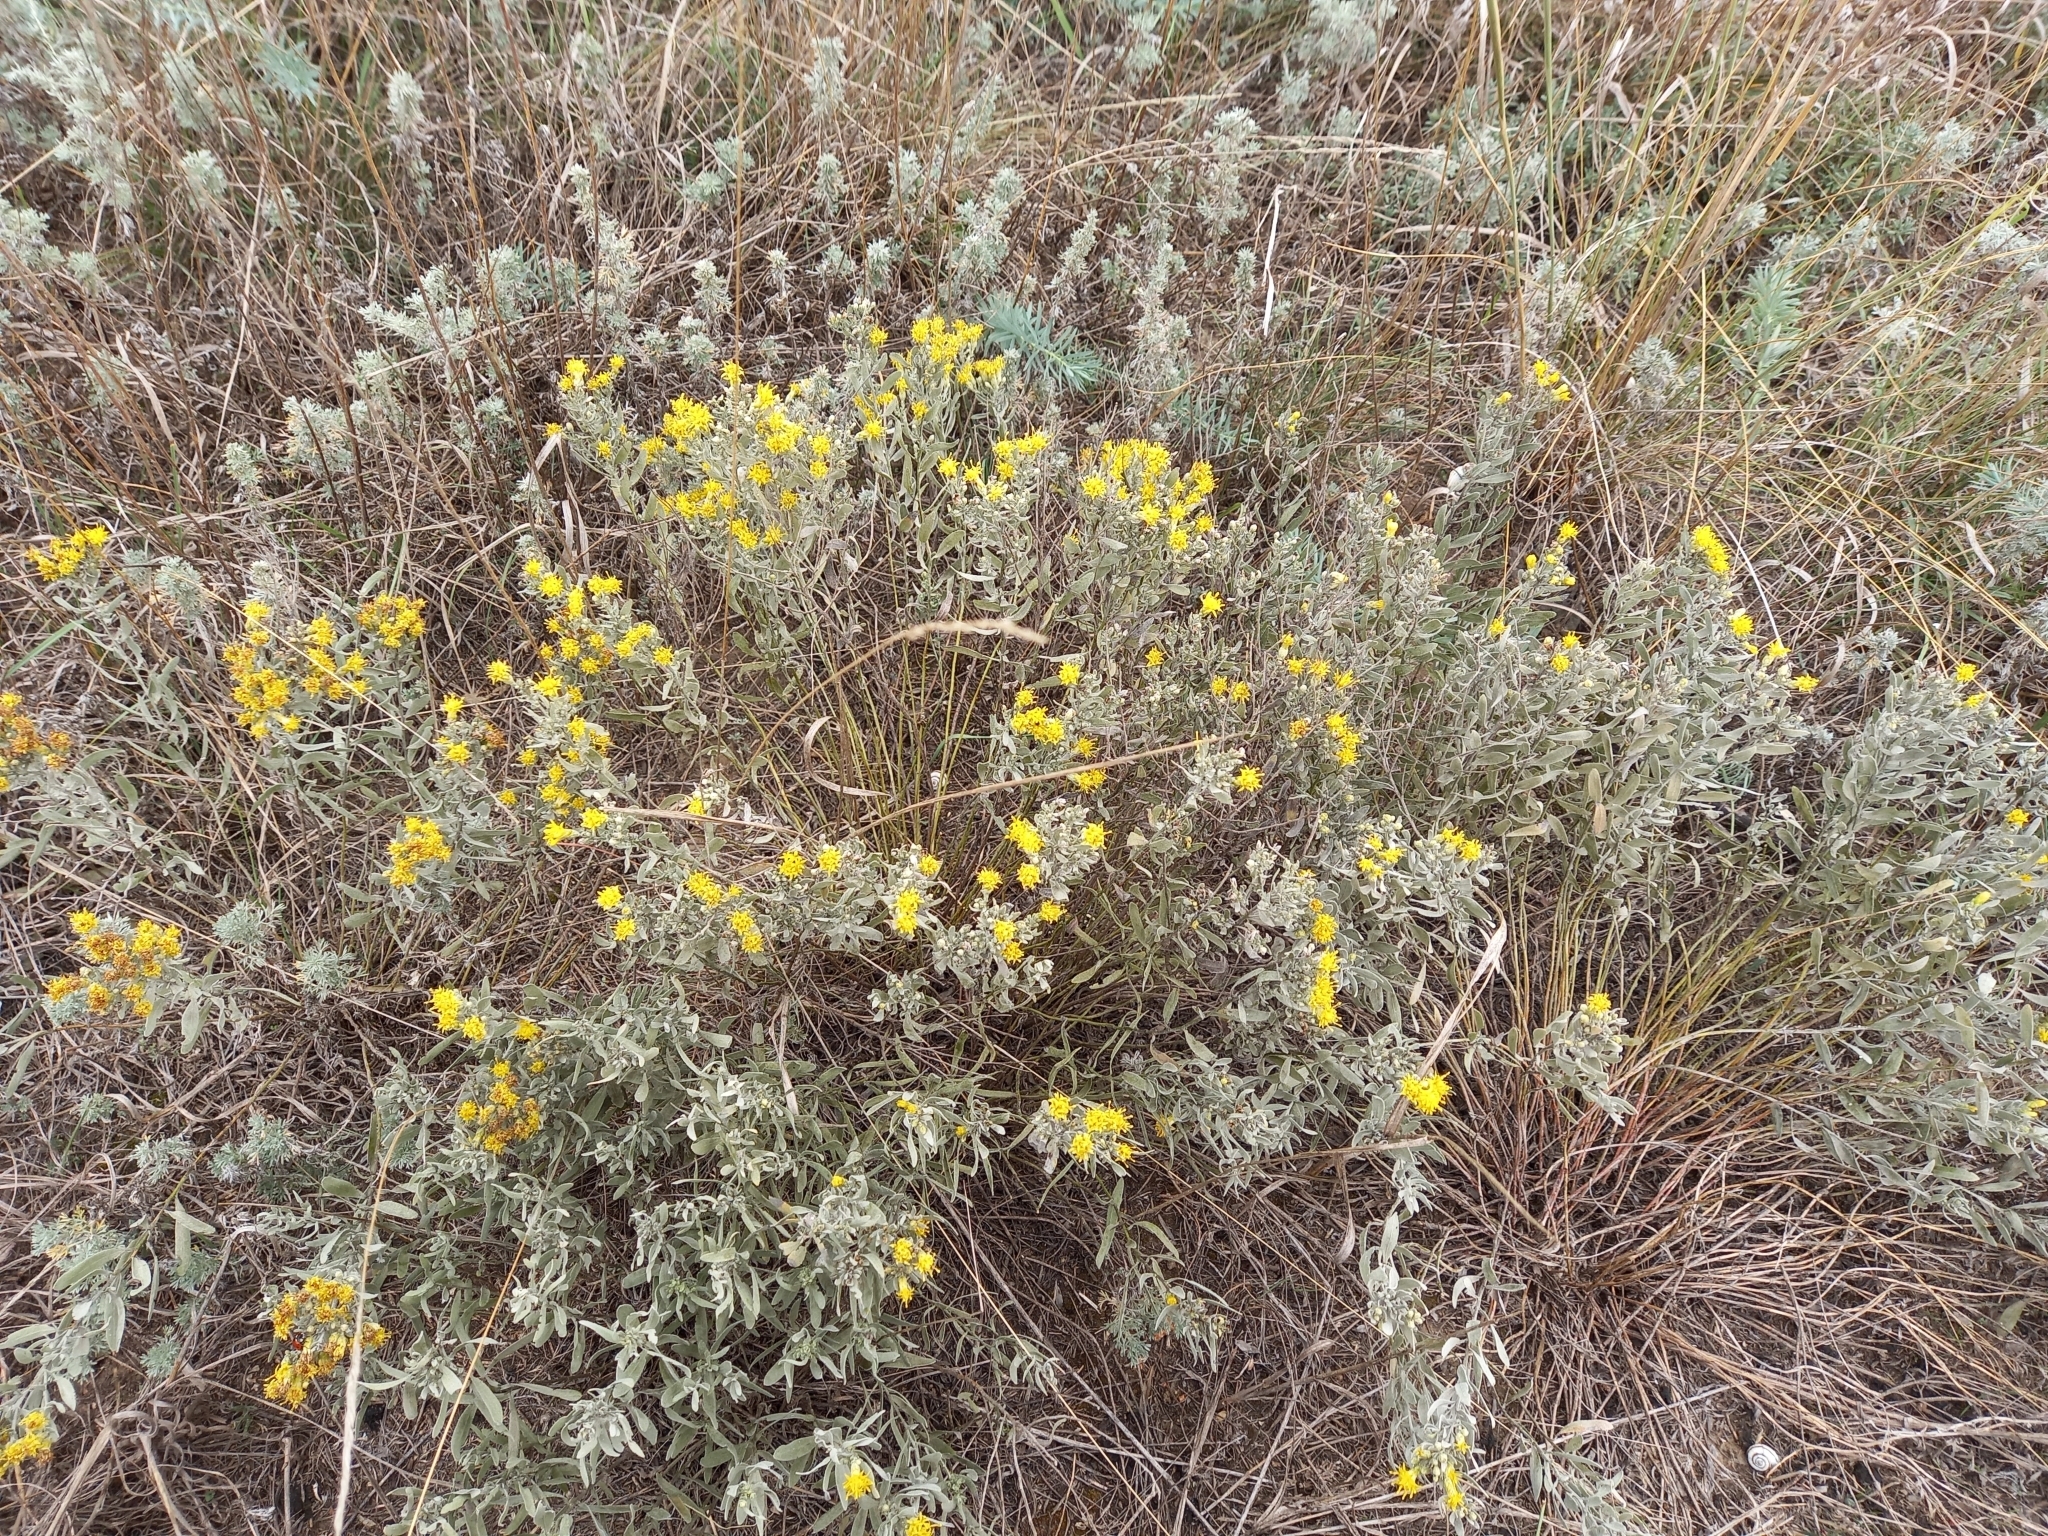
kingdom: Plantae
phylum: Tracheophyta
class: Magnoliopsida
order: Asterales
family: Asteraceae
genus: Galatella
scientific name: Galatella villosa
